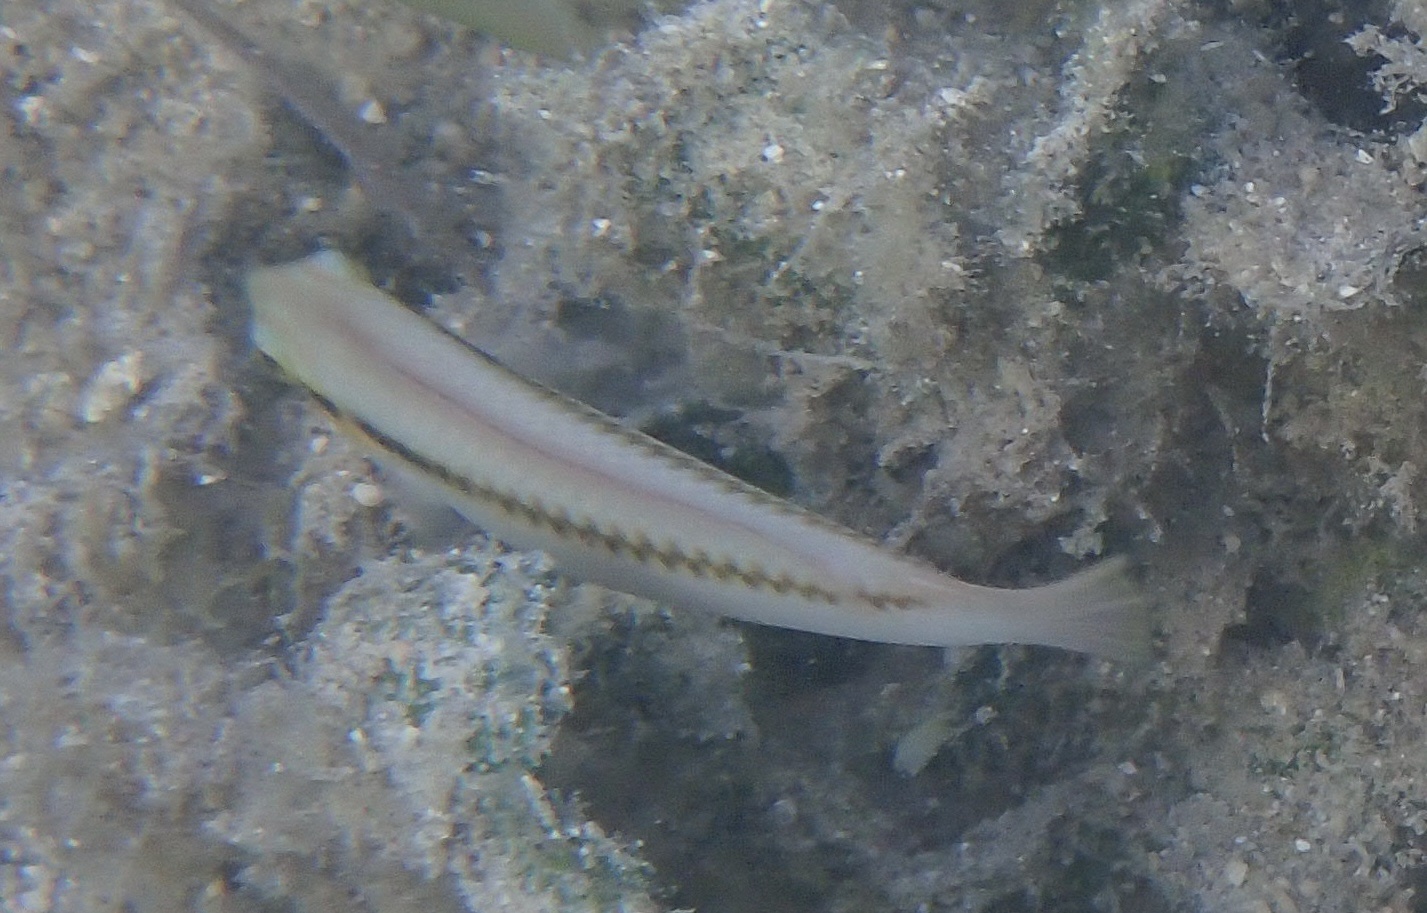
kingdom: Animalia
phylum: Chordata
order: Perciformes
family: Labridae
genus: Halichoeres
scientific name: Halichoeres scapularis
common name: Brownbanded wrasse
